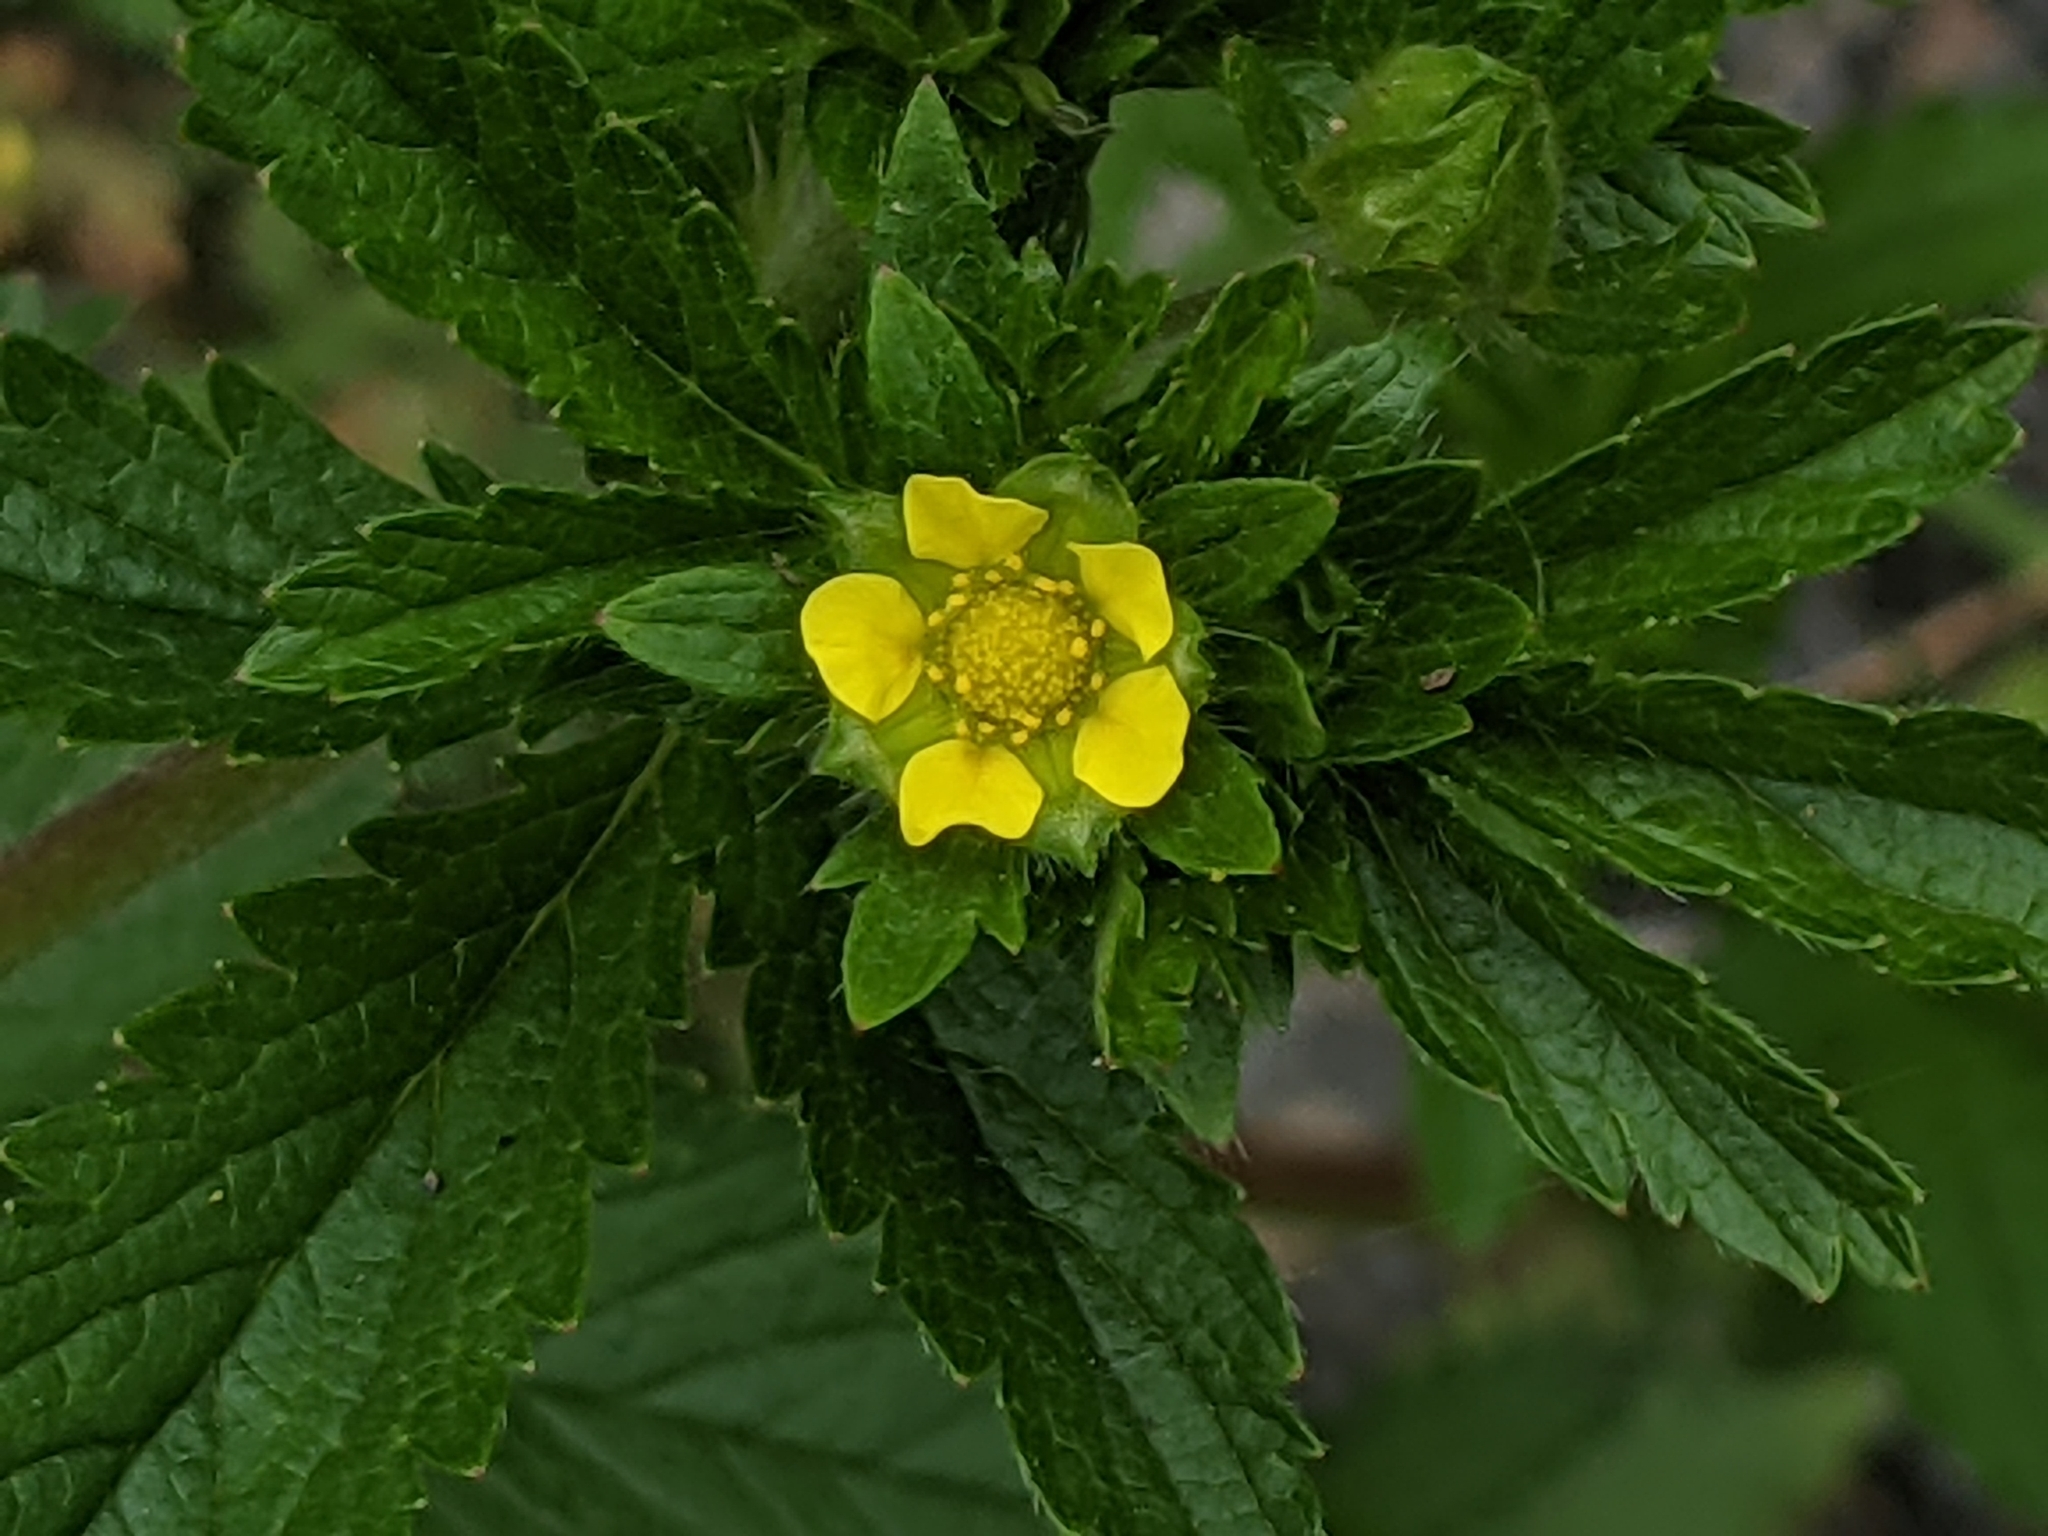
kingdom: Plantae
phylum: Tracheophyta
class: Magnoliopsida
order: Rosales
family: Rosaceae
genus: Potentilla
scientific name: Potentilla norvegica
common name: Ternate-leaved cinquefoil
